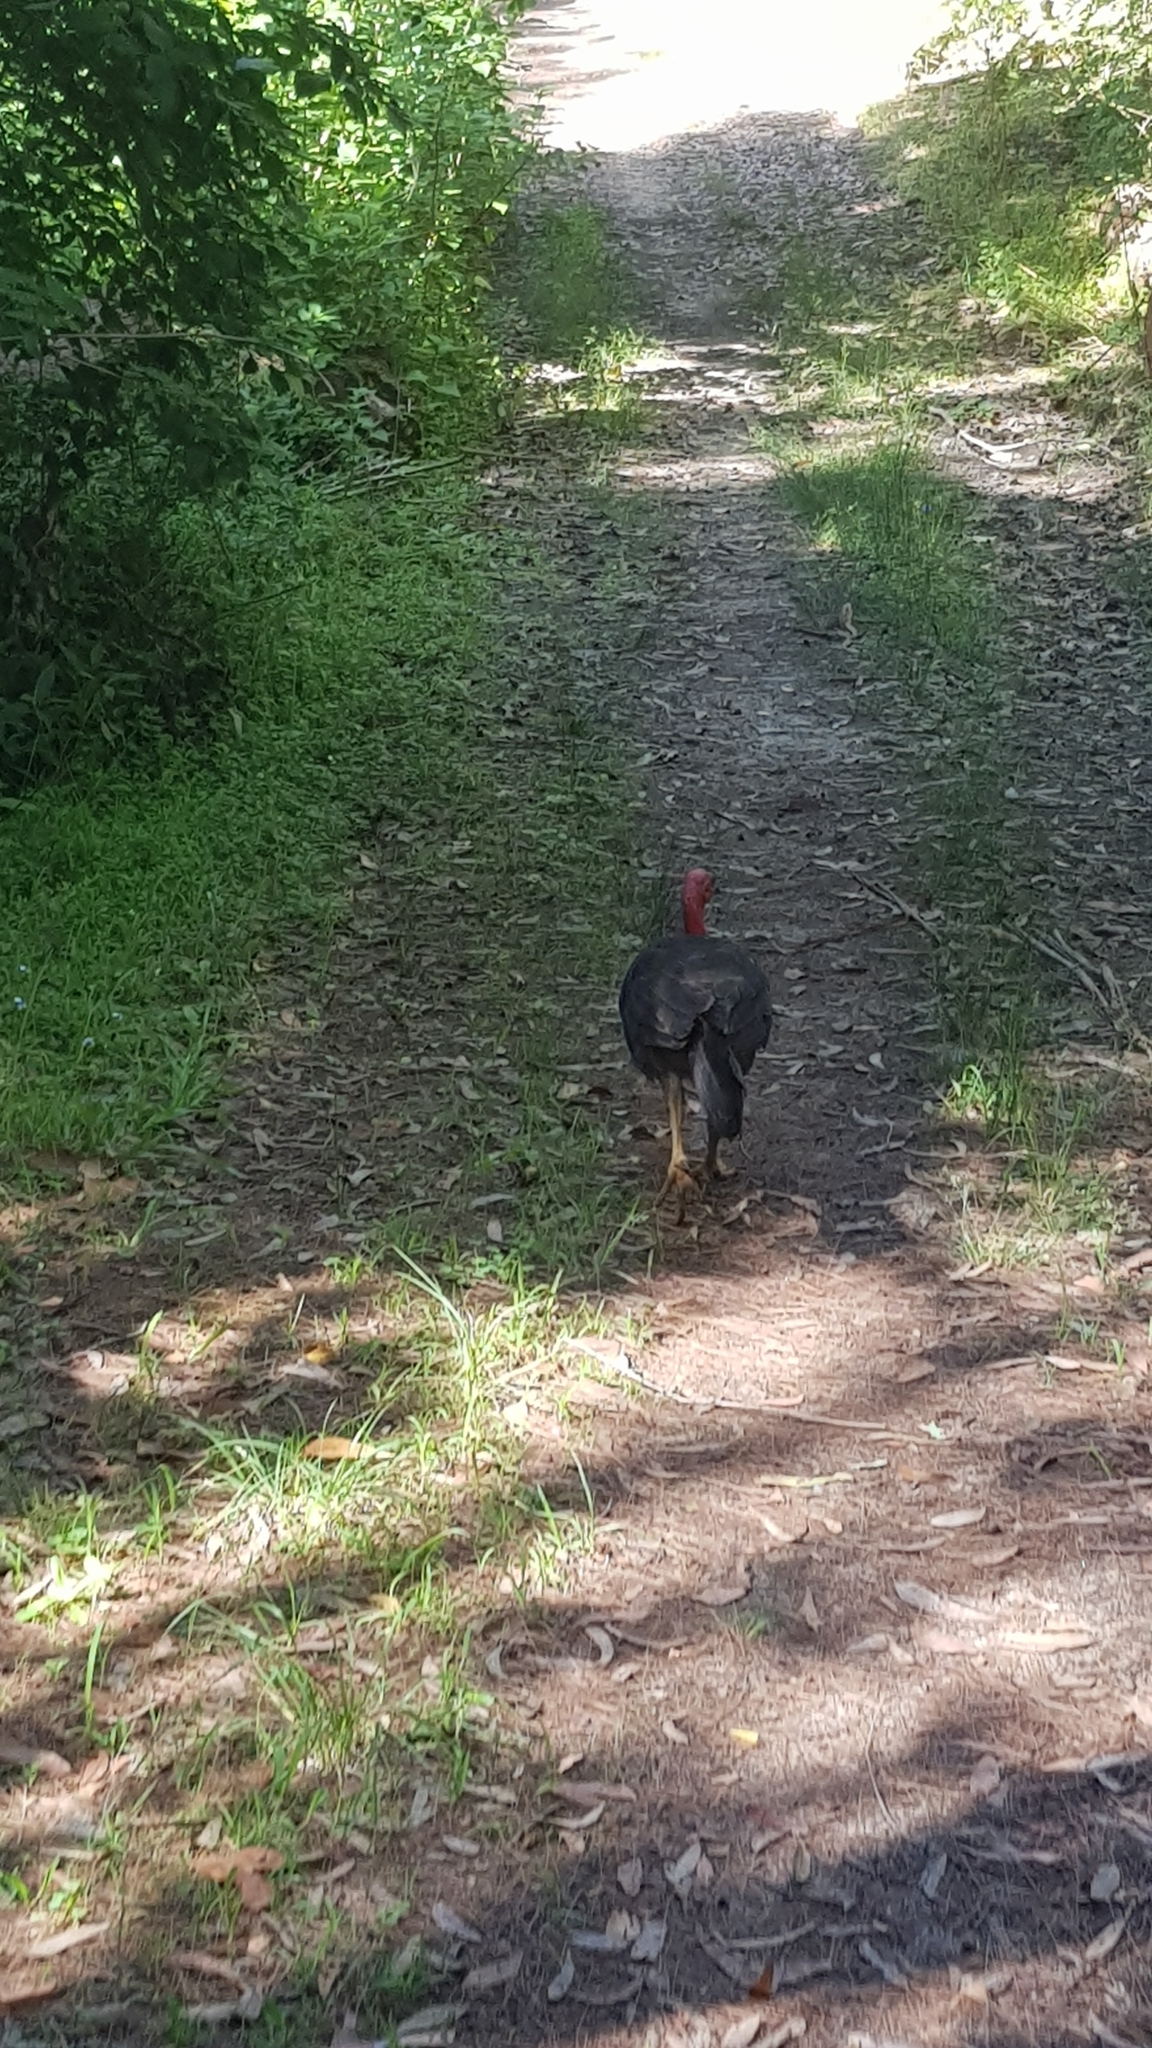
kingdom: Animalia
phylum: Chordata
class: Aves
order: Galliformes
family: Megapodiidae
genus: Alectura
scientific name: Alectura lathami
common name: Australian brushturkey
